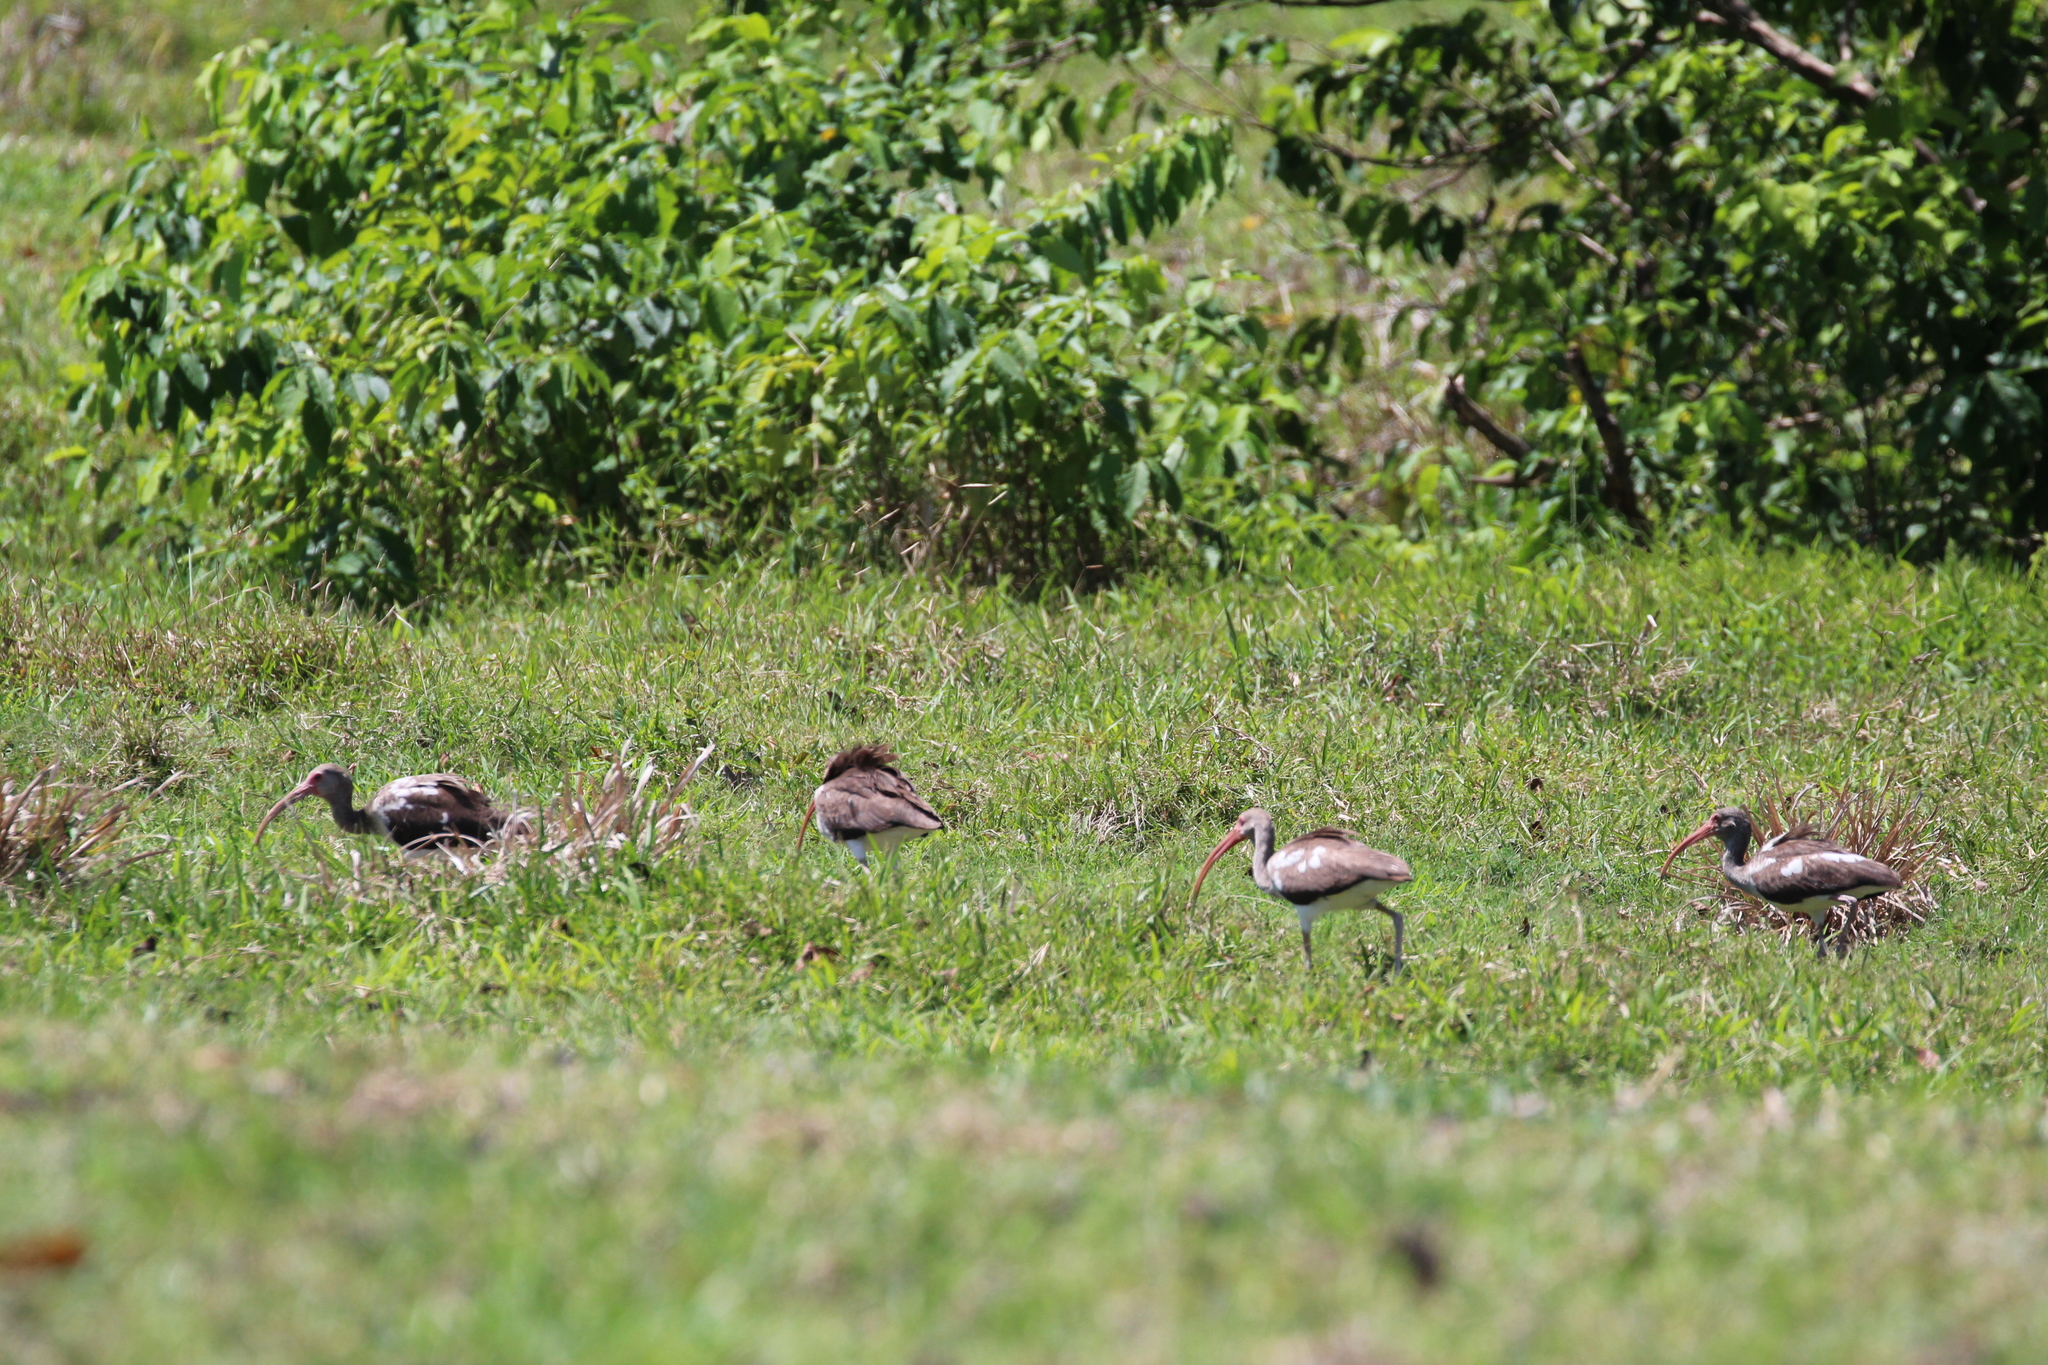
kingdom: Animalia
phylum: Chordata
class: Aves
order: Pelecaniformes
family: Threskiornithidae
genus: Eudocimus
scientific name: Eudocimus albus
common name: White ibis
